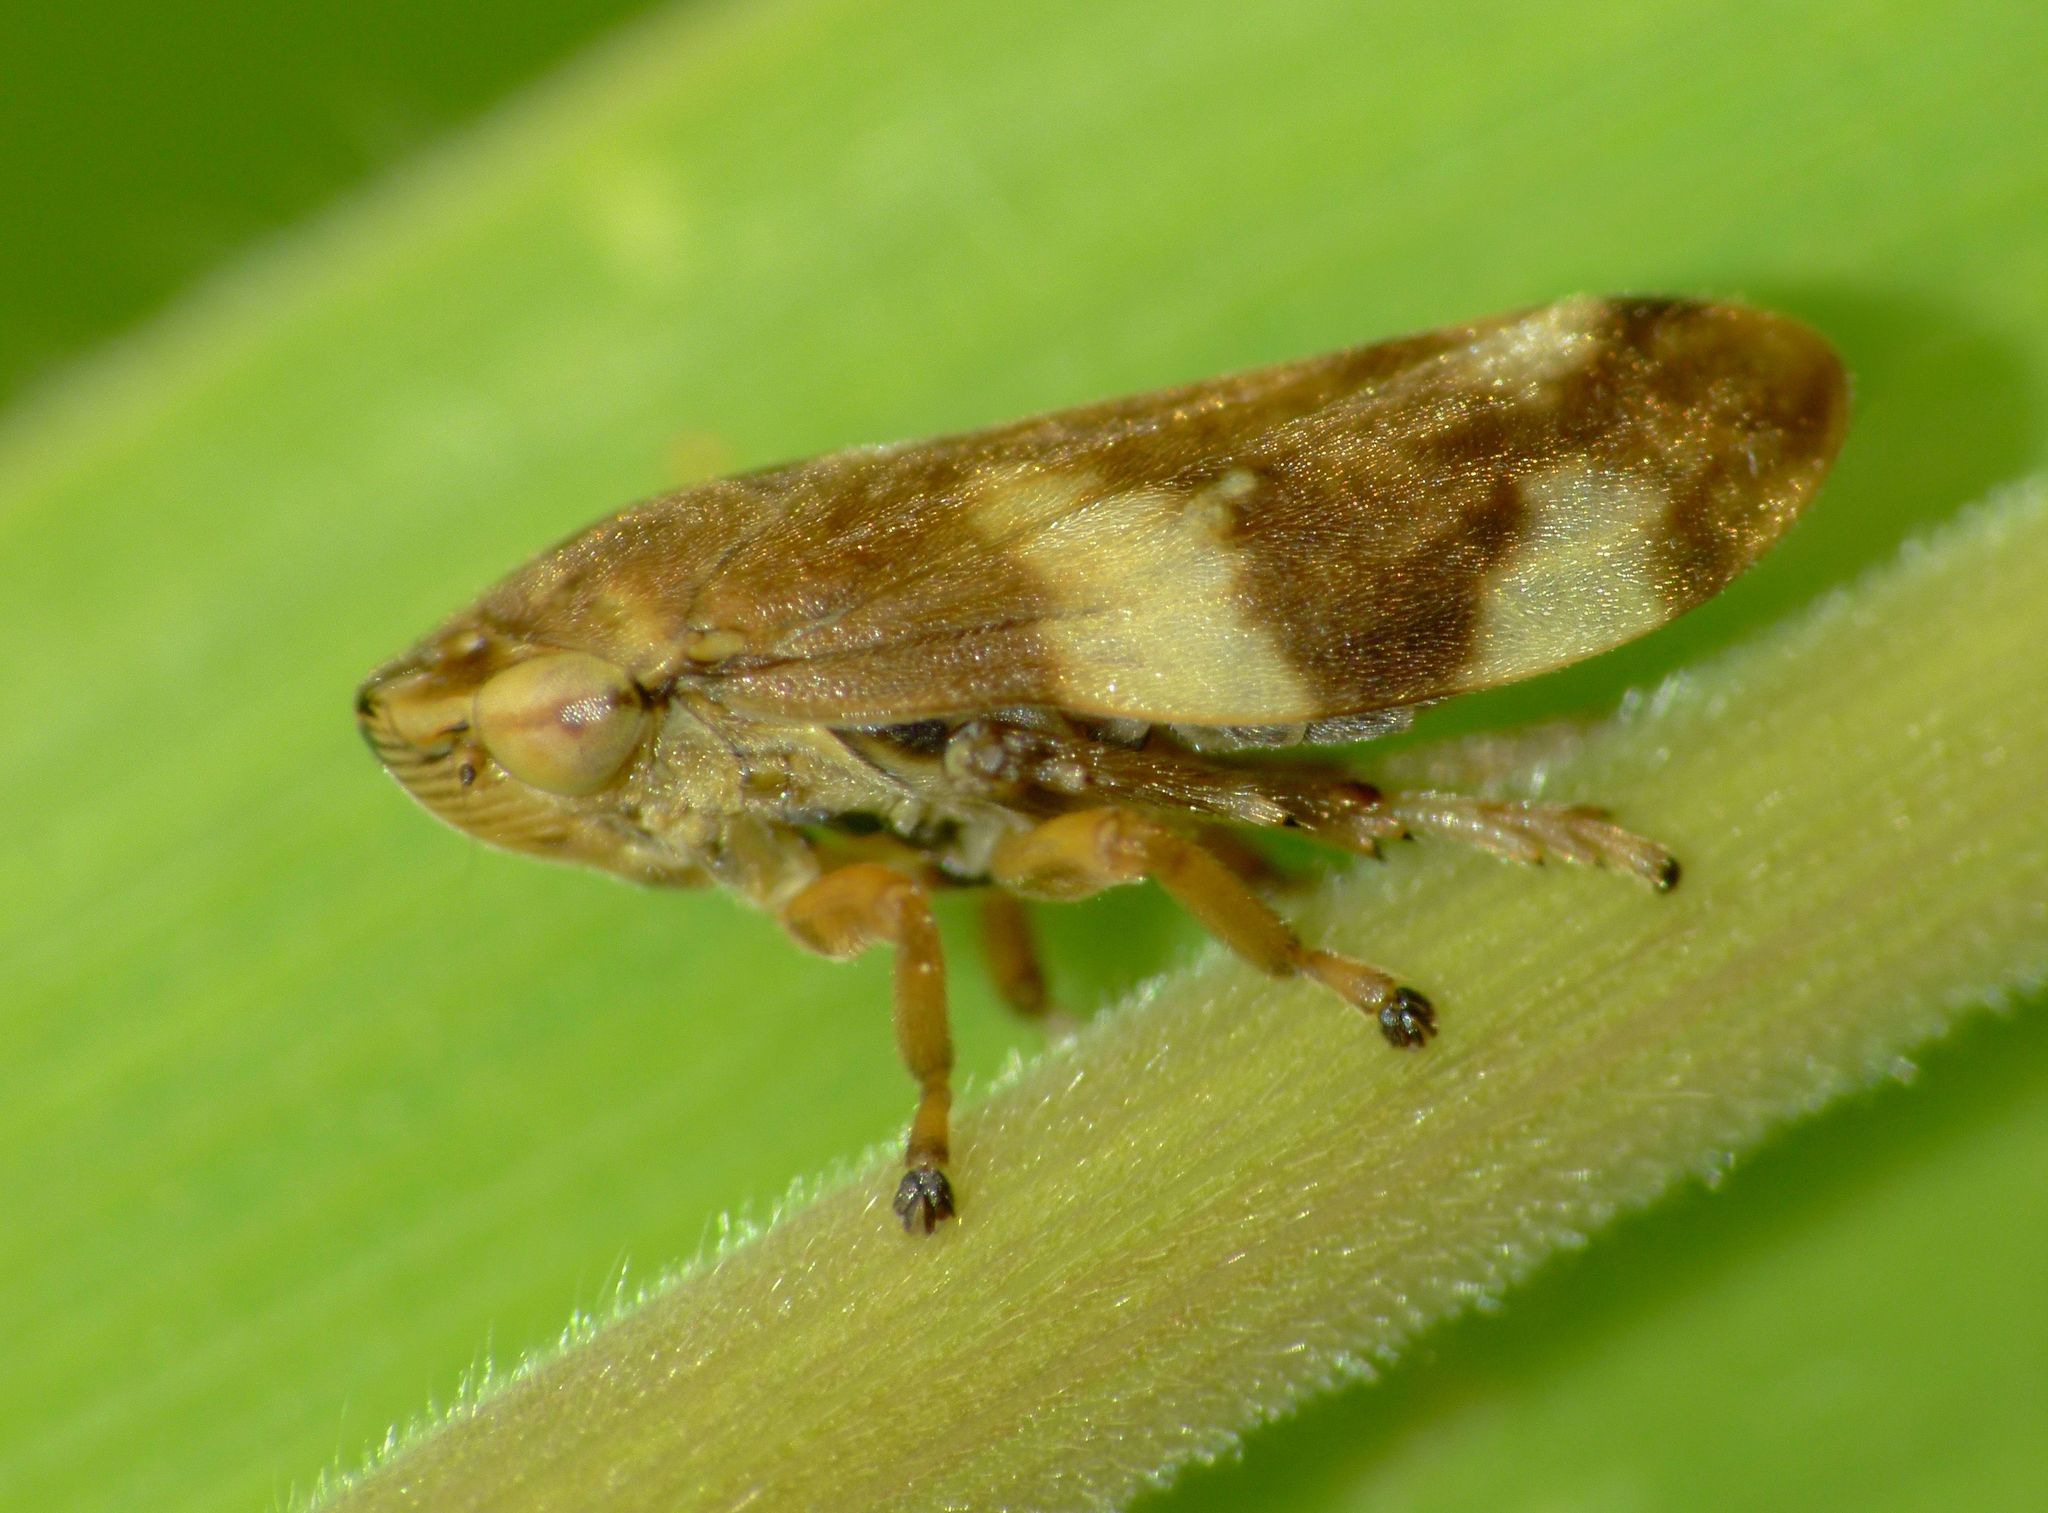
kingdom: Animalia
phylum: Arthropoda
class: Insecta
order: Hemiptera
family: Aphrophoridae
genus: Philaenus
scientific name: Philaenus spumarius
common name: Meadow spittlebug
